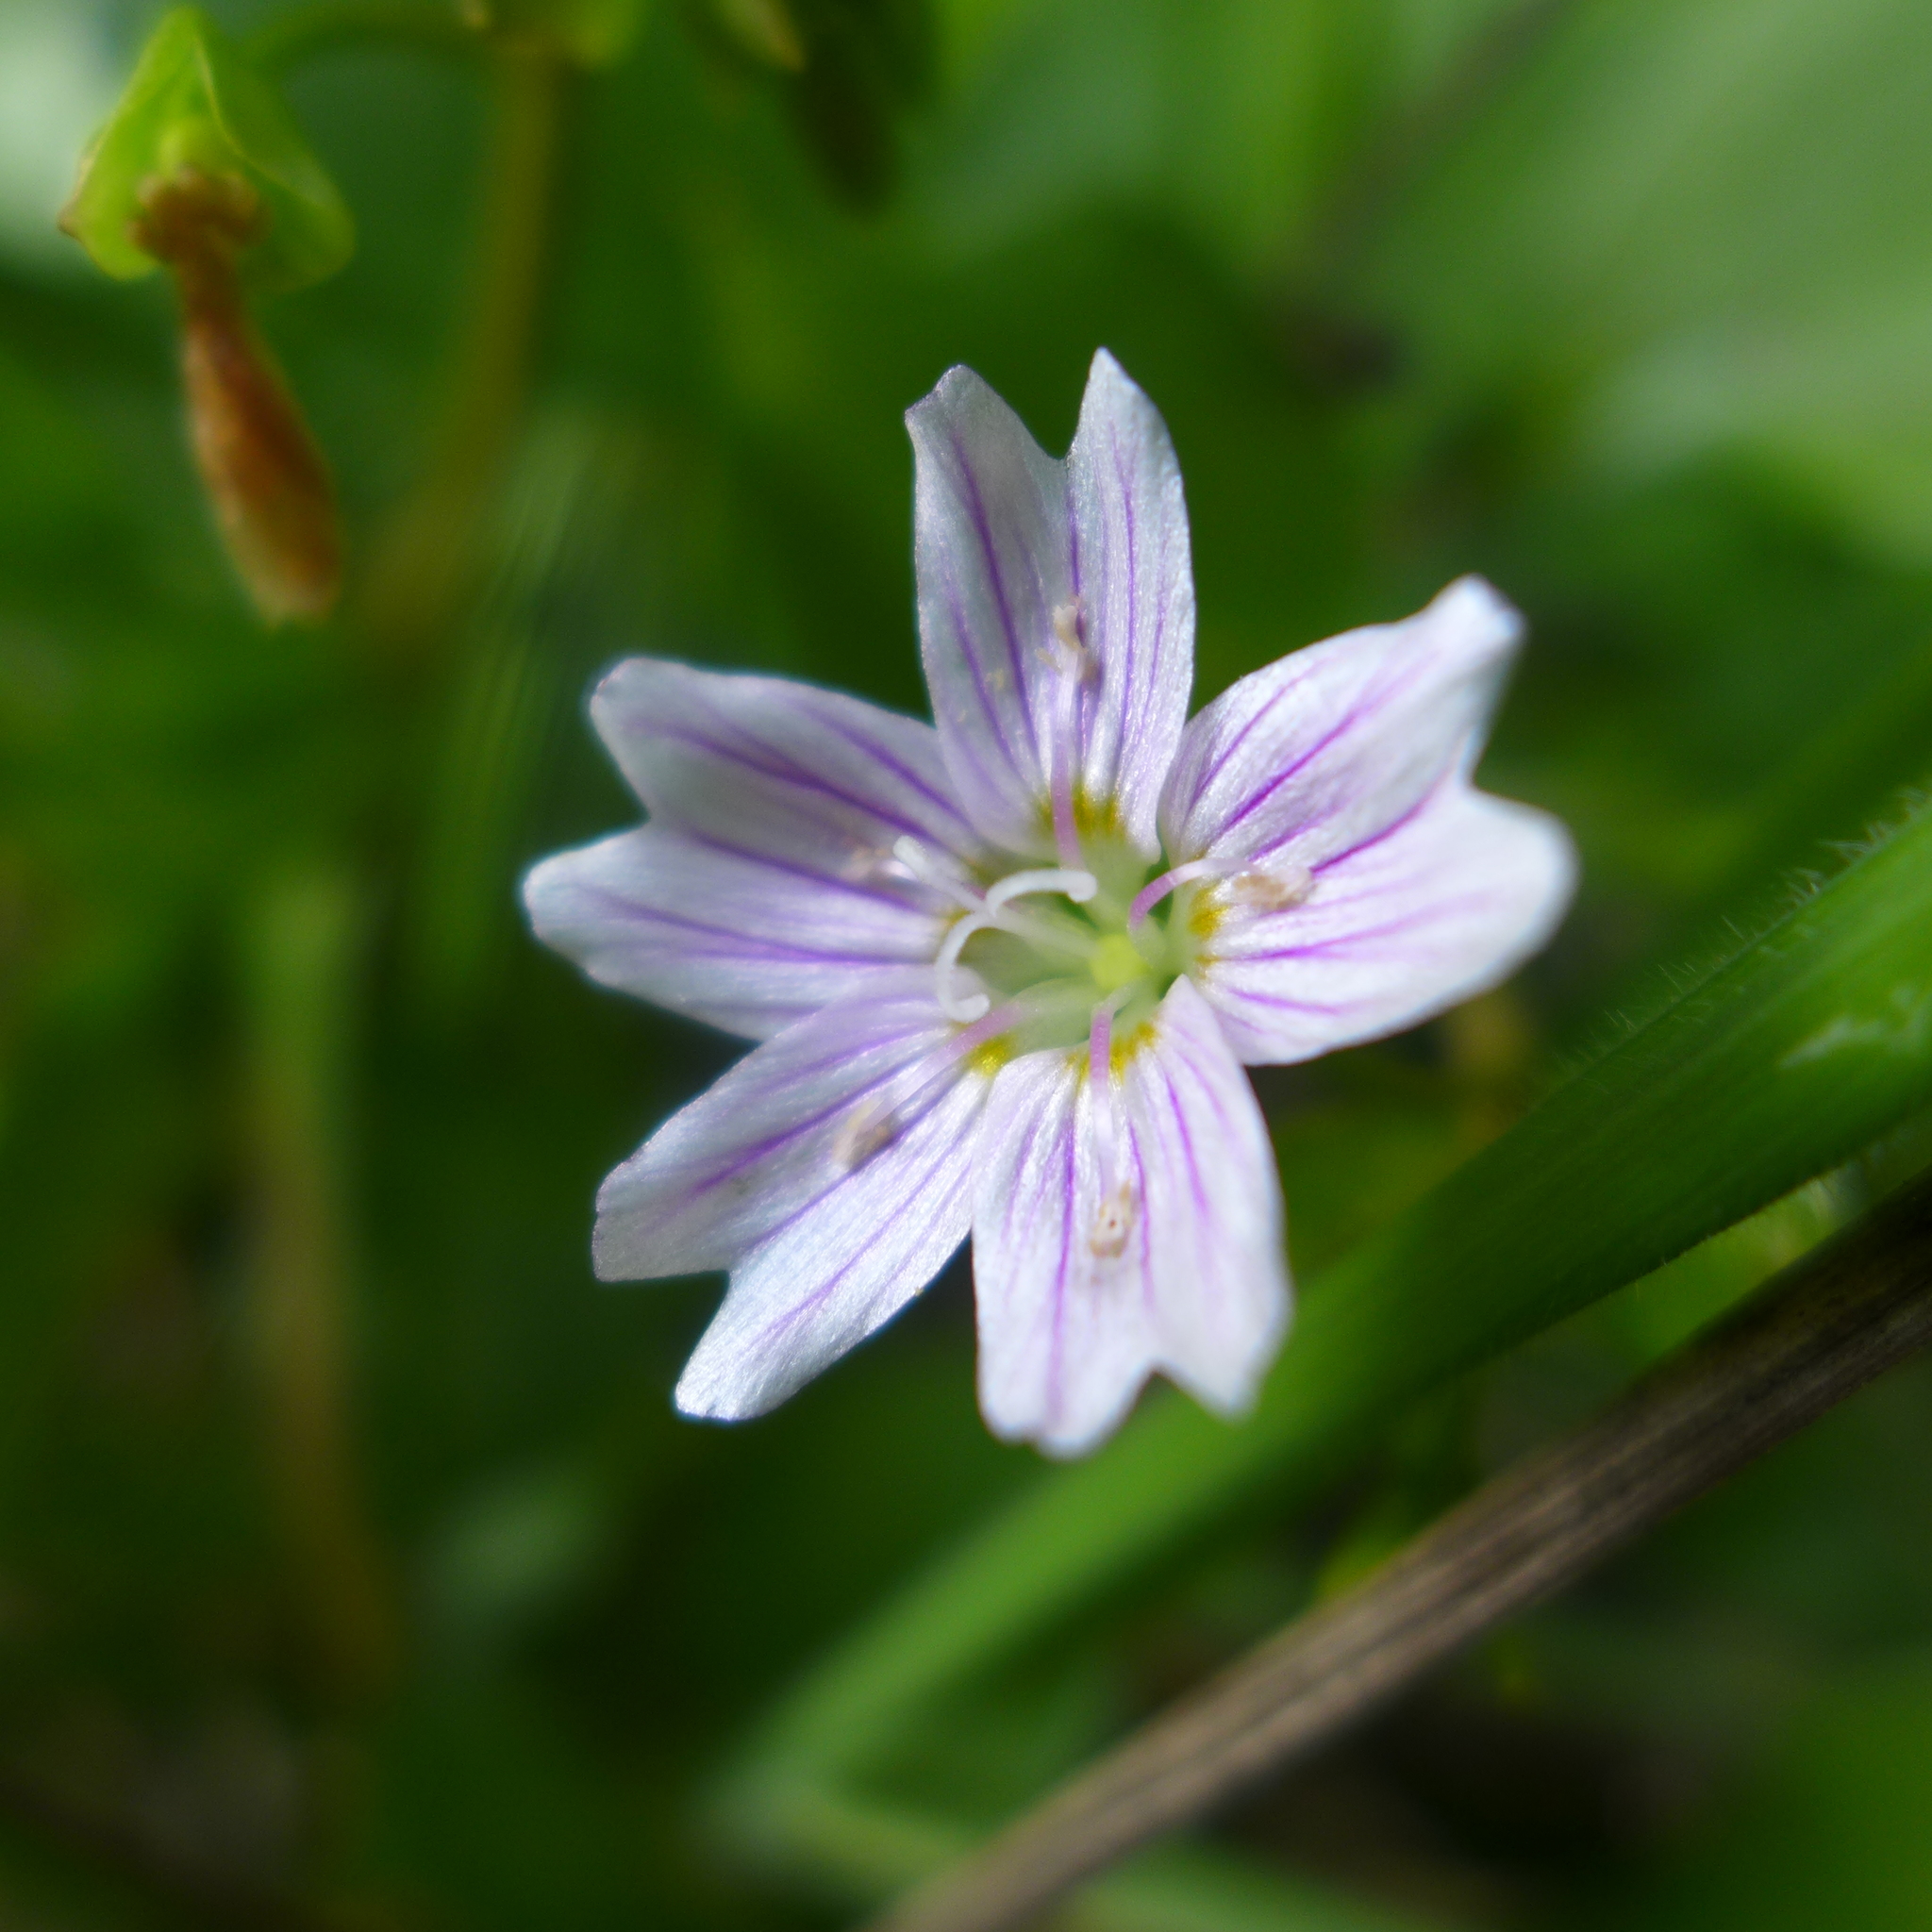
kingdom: Plantae
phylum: Tracheophyta
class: Magnoliopsida
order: Caryophyllales
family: Montiaceae
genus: Claytonia
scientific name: Claytonia sibirica
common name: Pink purslane
